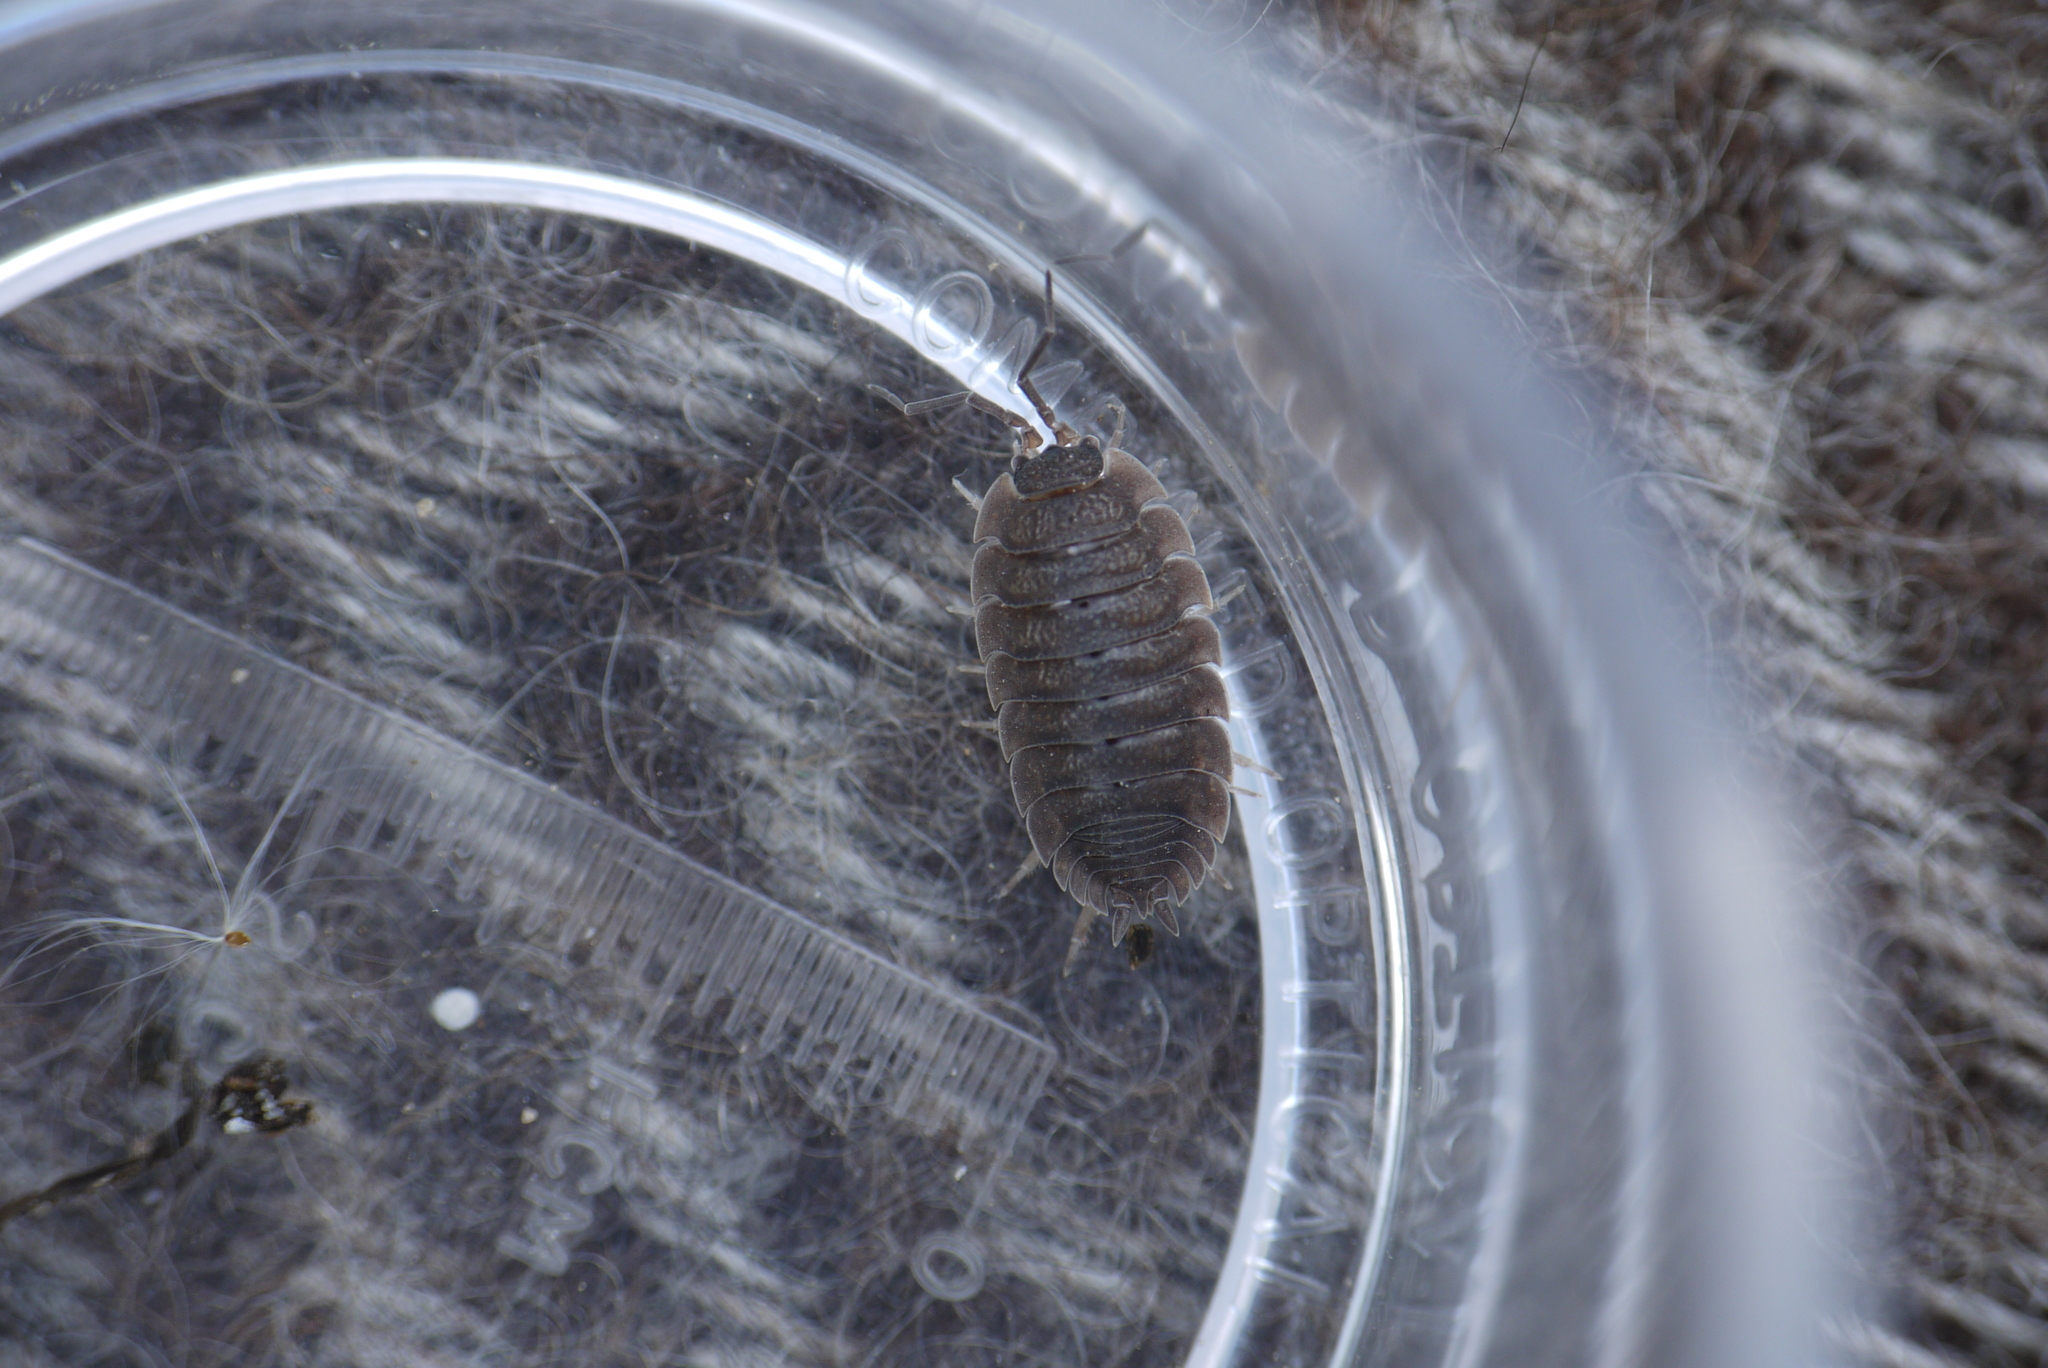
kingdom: Animalia
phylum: Arthropoda
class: Malacostraca
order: Isopoda
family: Porcellionidae
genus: Porcellio
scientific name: Porcellio scaber
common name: Common rough woodlouse
